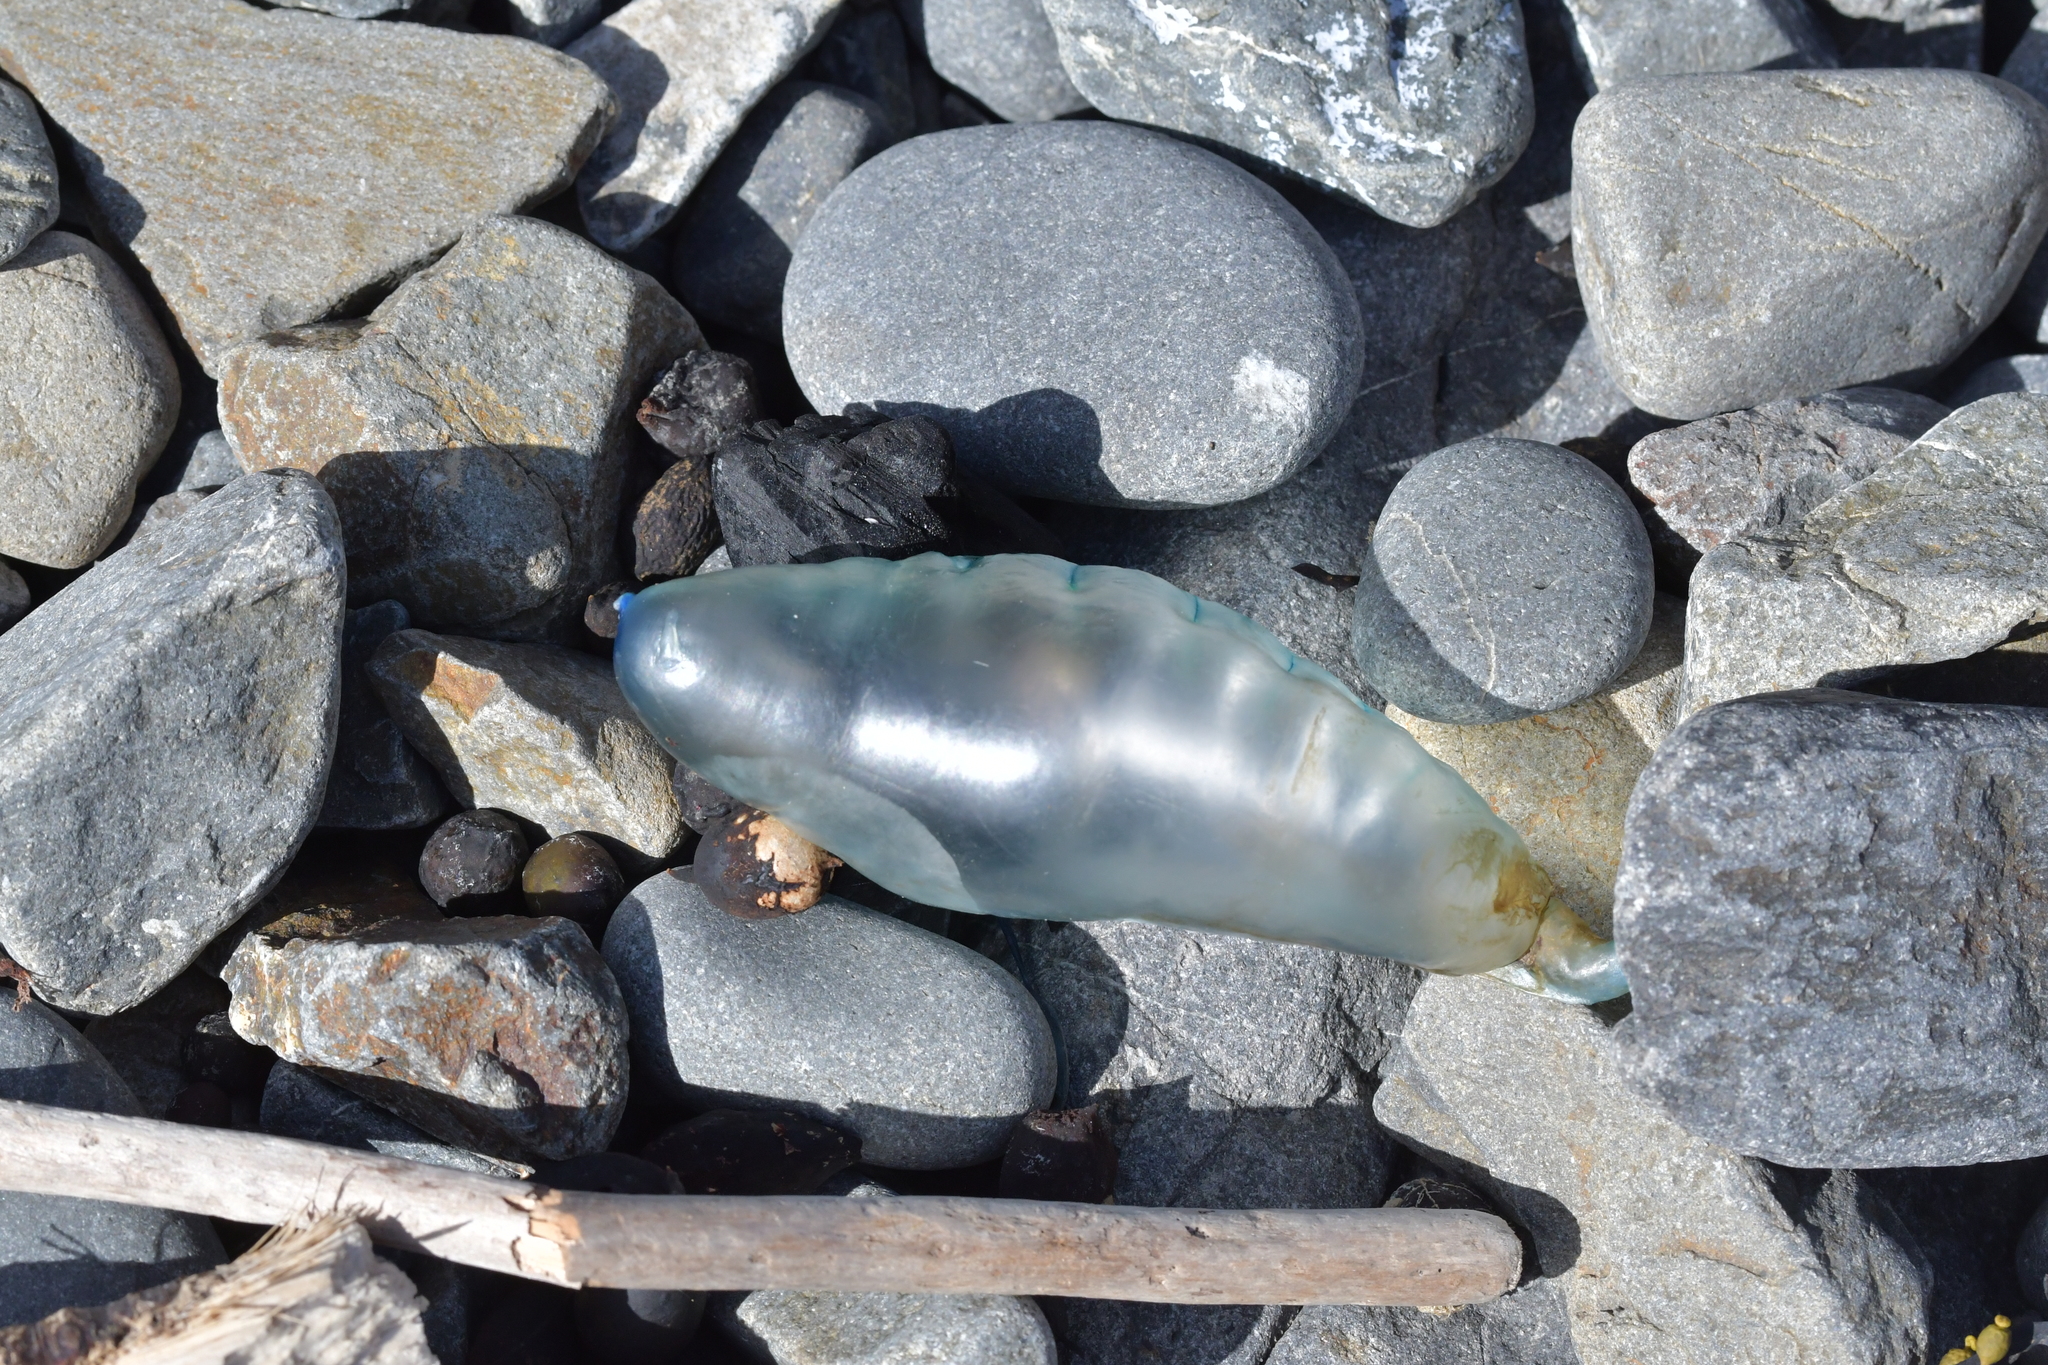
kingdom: Animalia
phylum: Cnidaria
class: Hydrozoa
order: Siphonophorae
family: Physaliidae
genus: Physalia
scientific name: Physalia physalis
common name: Portuguese man-of-war
